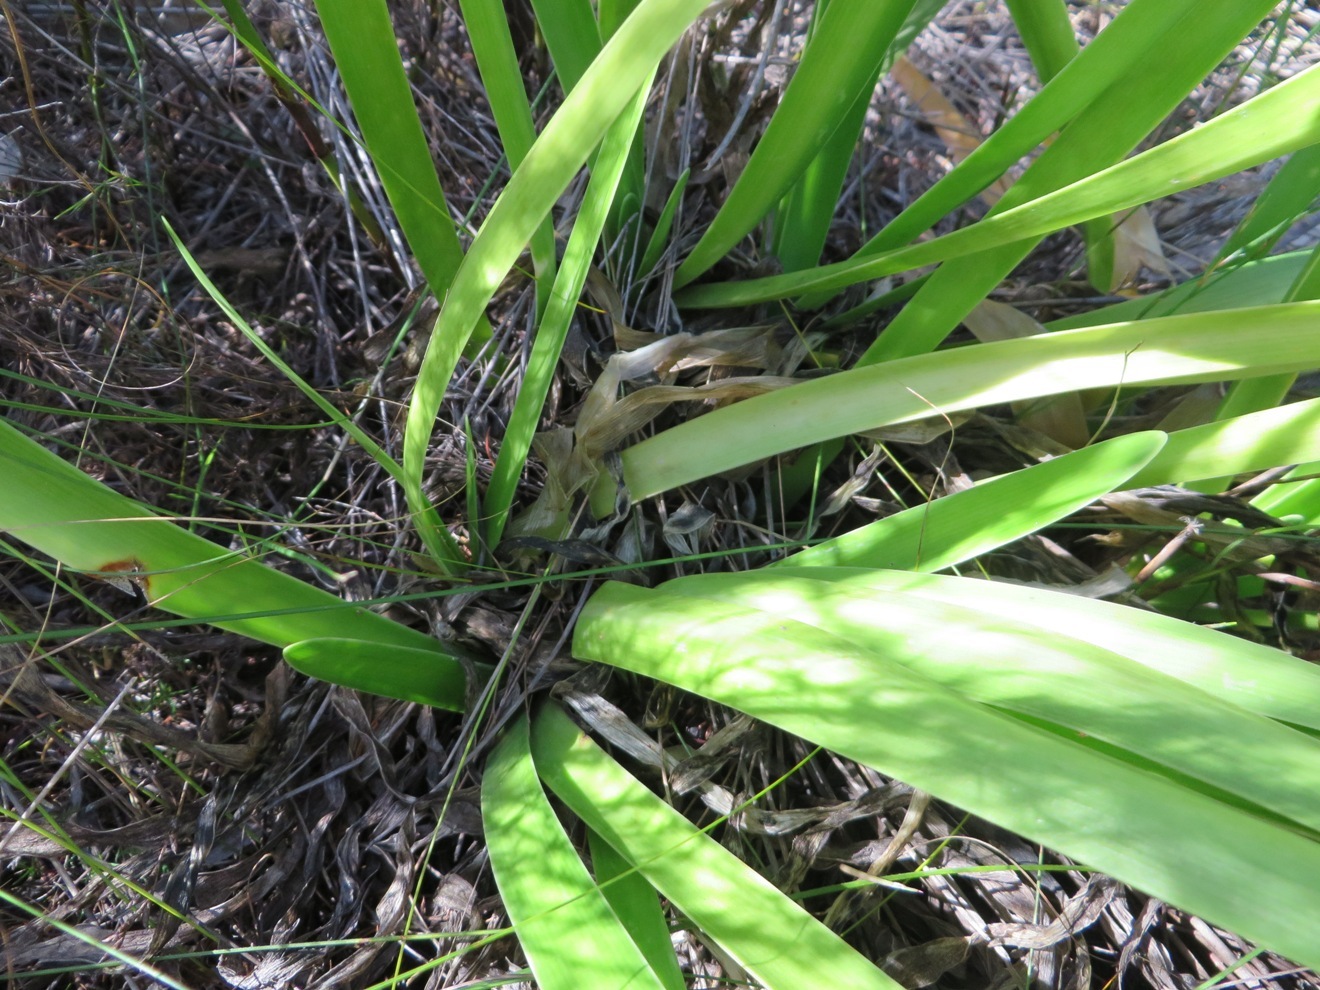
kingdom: Plantae
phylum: Tracheophyta
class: Liliopsida
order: Asparagales
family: Amaryllidaceae
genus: Agapanthus
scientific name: Agapanthus africanus
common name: Lily-of-the-nile
